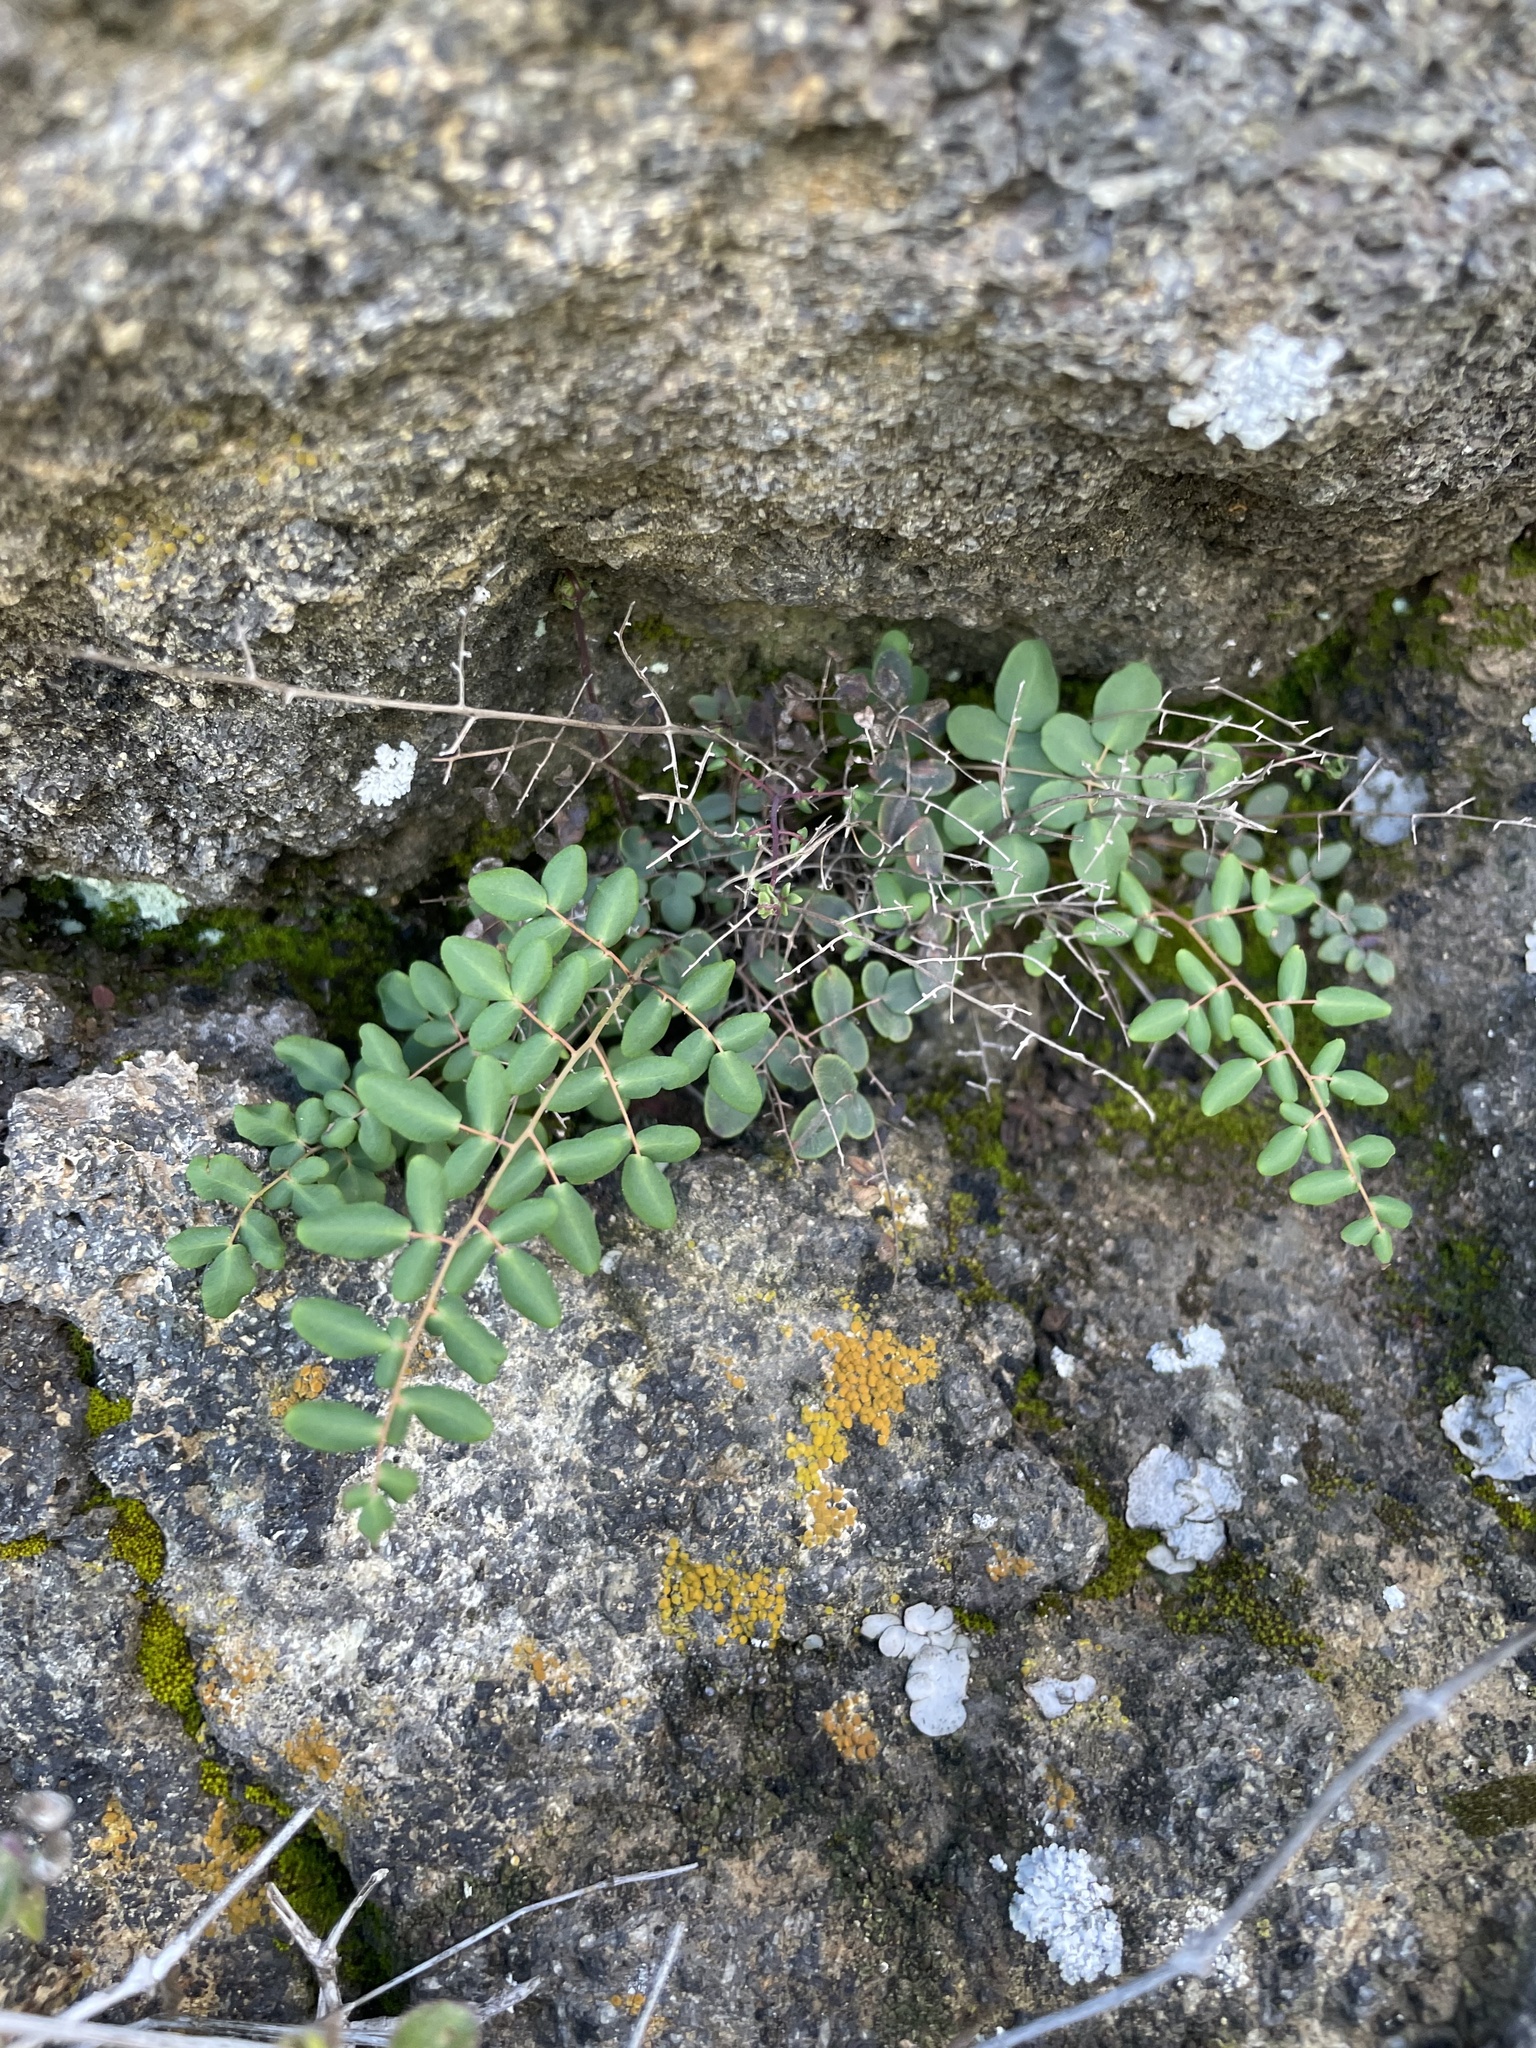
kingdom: Plantae
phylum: Tracheophyta
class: Polypodiopsida
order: Polypodiales
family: Pteridaceae
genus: Pellaea
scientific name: Pellaea andromedifolia
